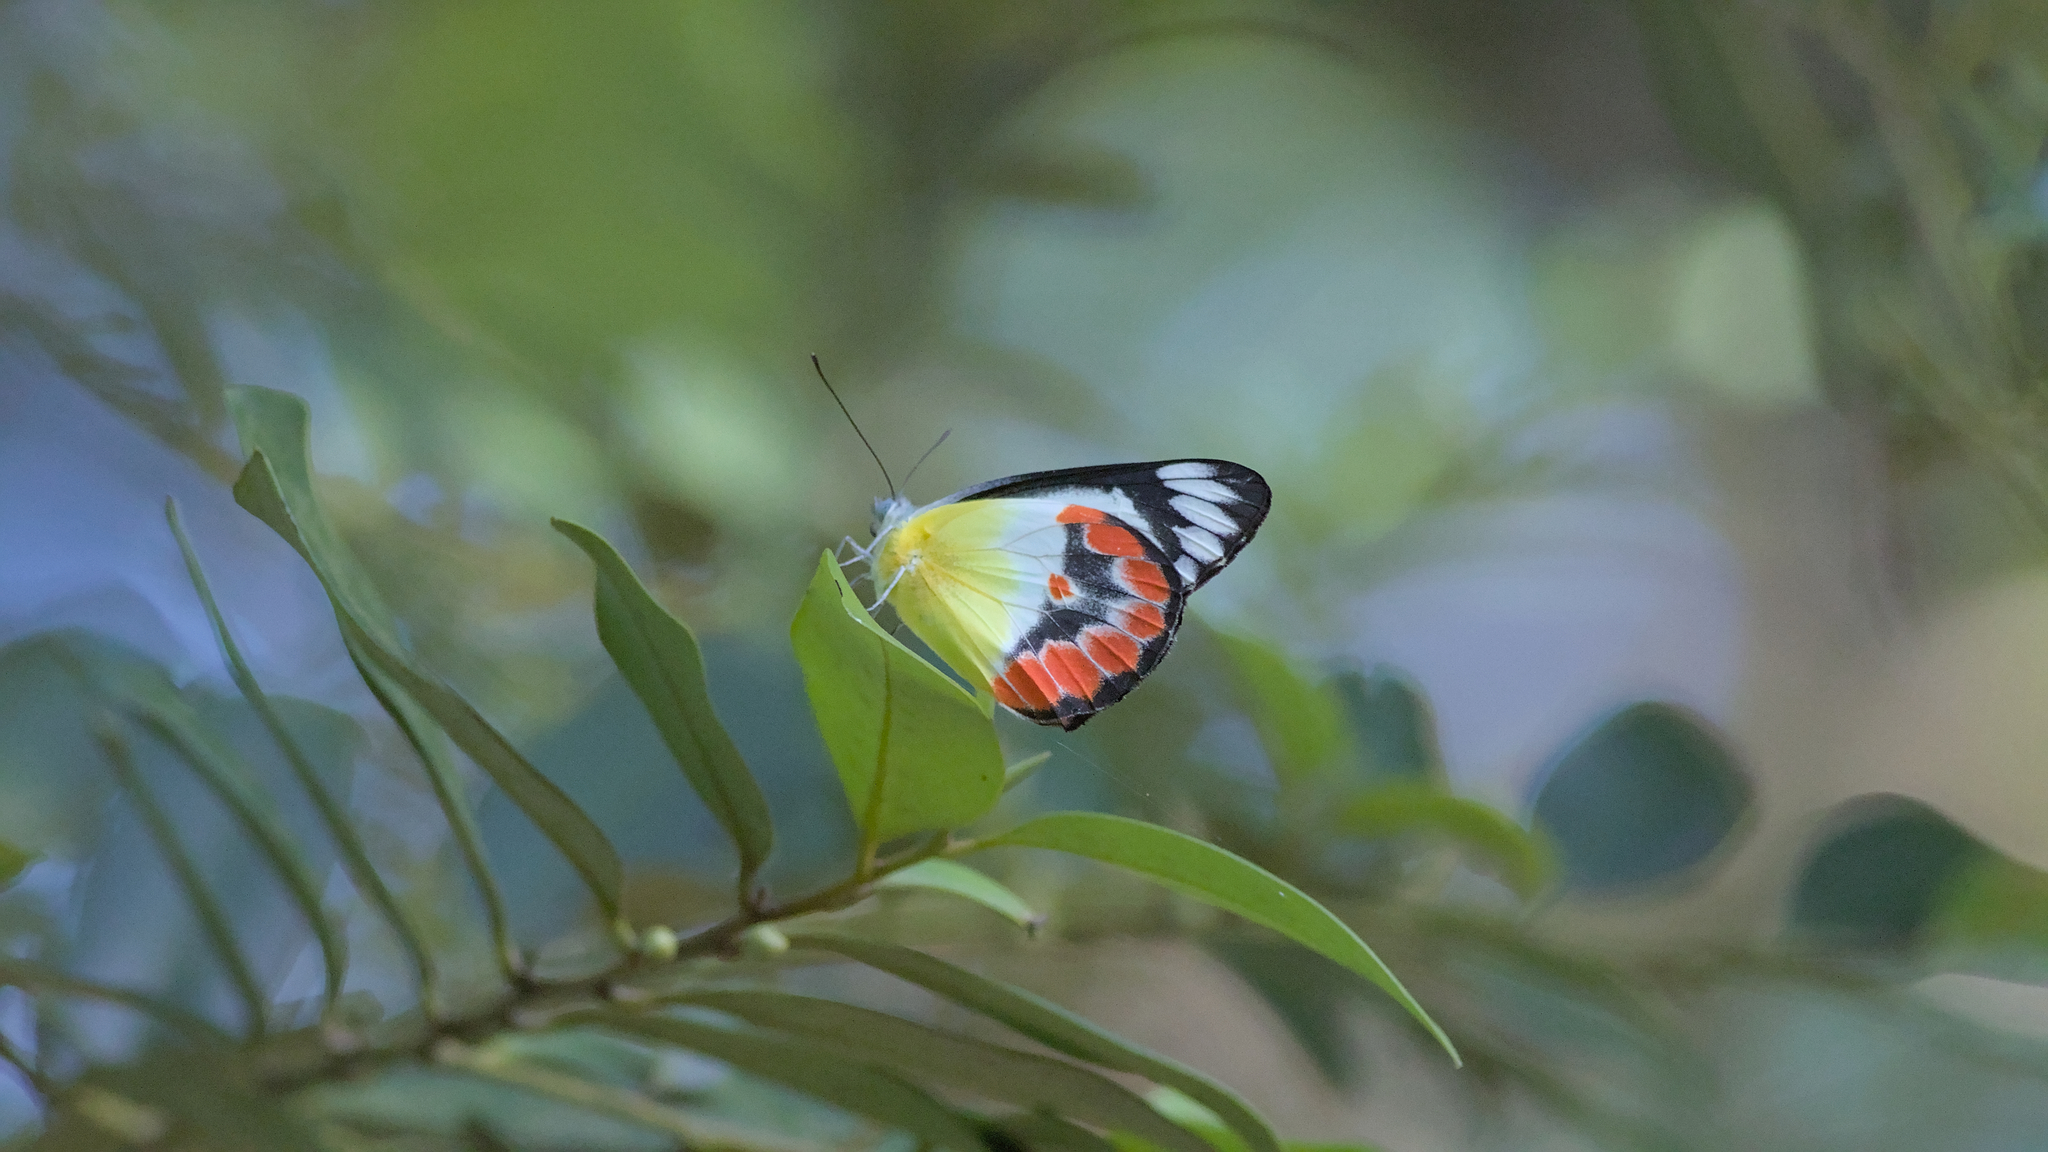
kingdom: Animalia
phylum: Arthropoda
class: Insecta
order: Lepidoptera
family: Pieridae
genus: Delias
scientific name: Delias argenthona
